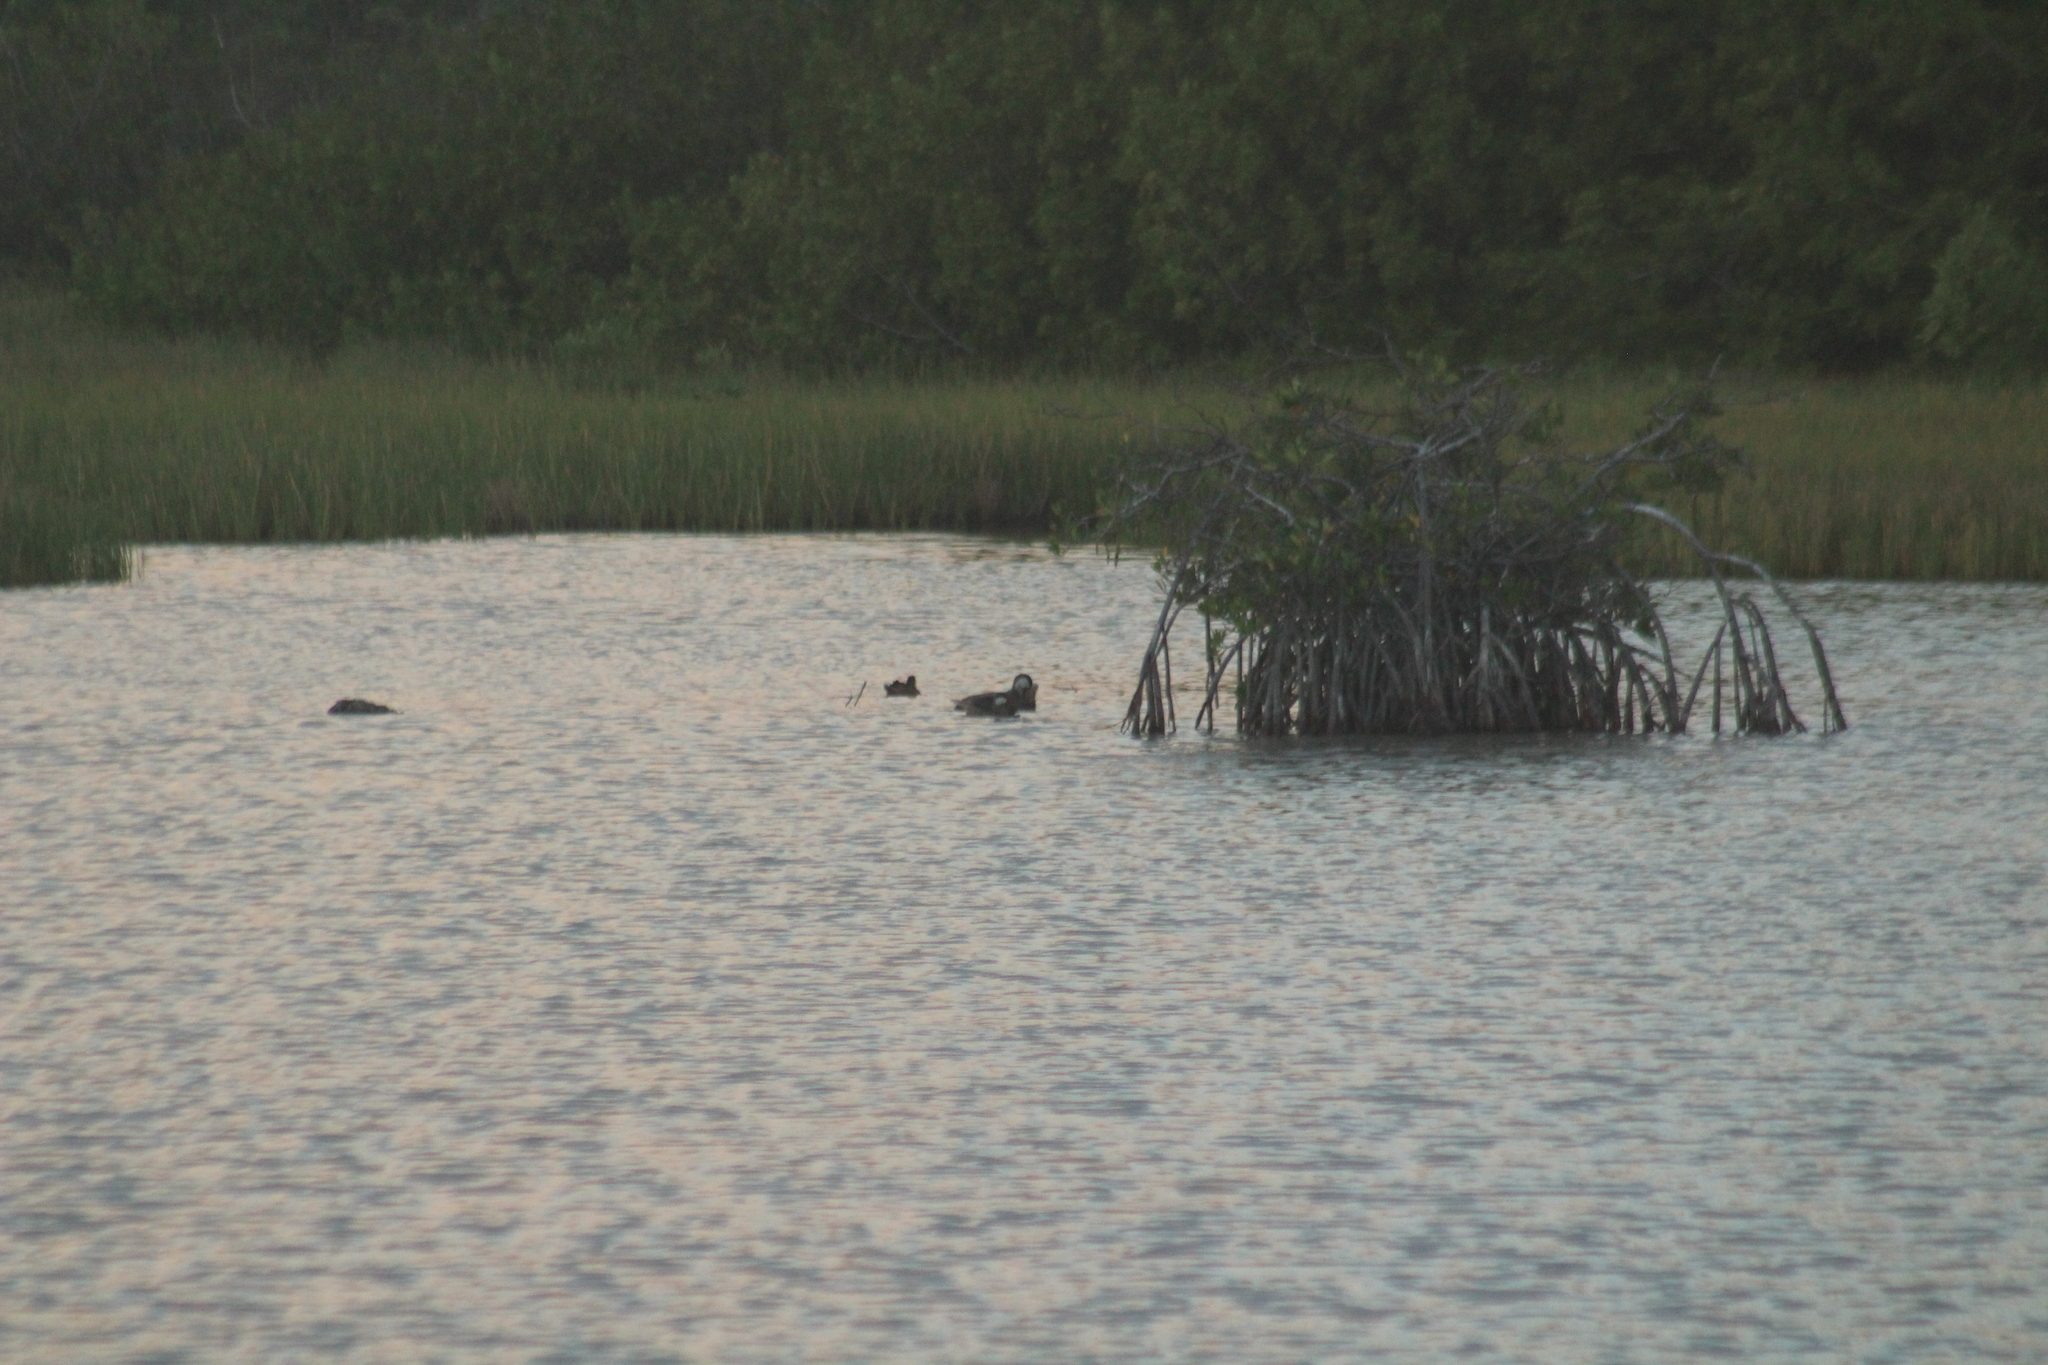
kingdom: Animalia
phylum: Chordata
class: Aves
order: Anseriformes
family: Anatidae
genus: Anas
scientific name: Anas bahamensis
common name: White-cheeked pintail
